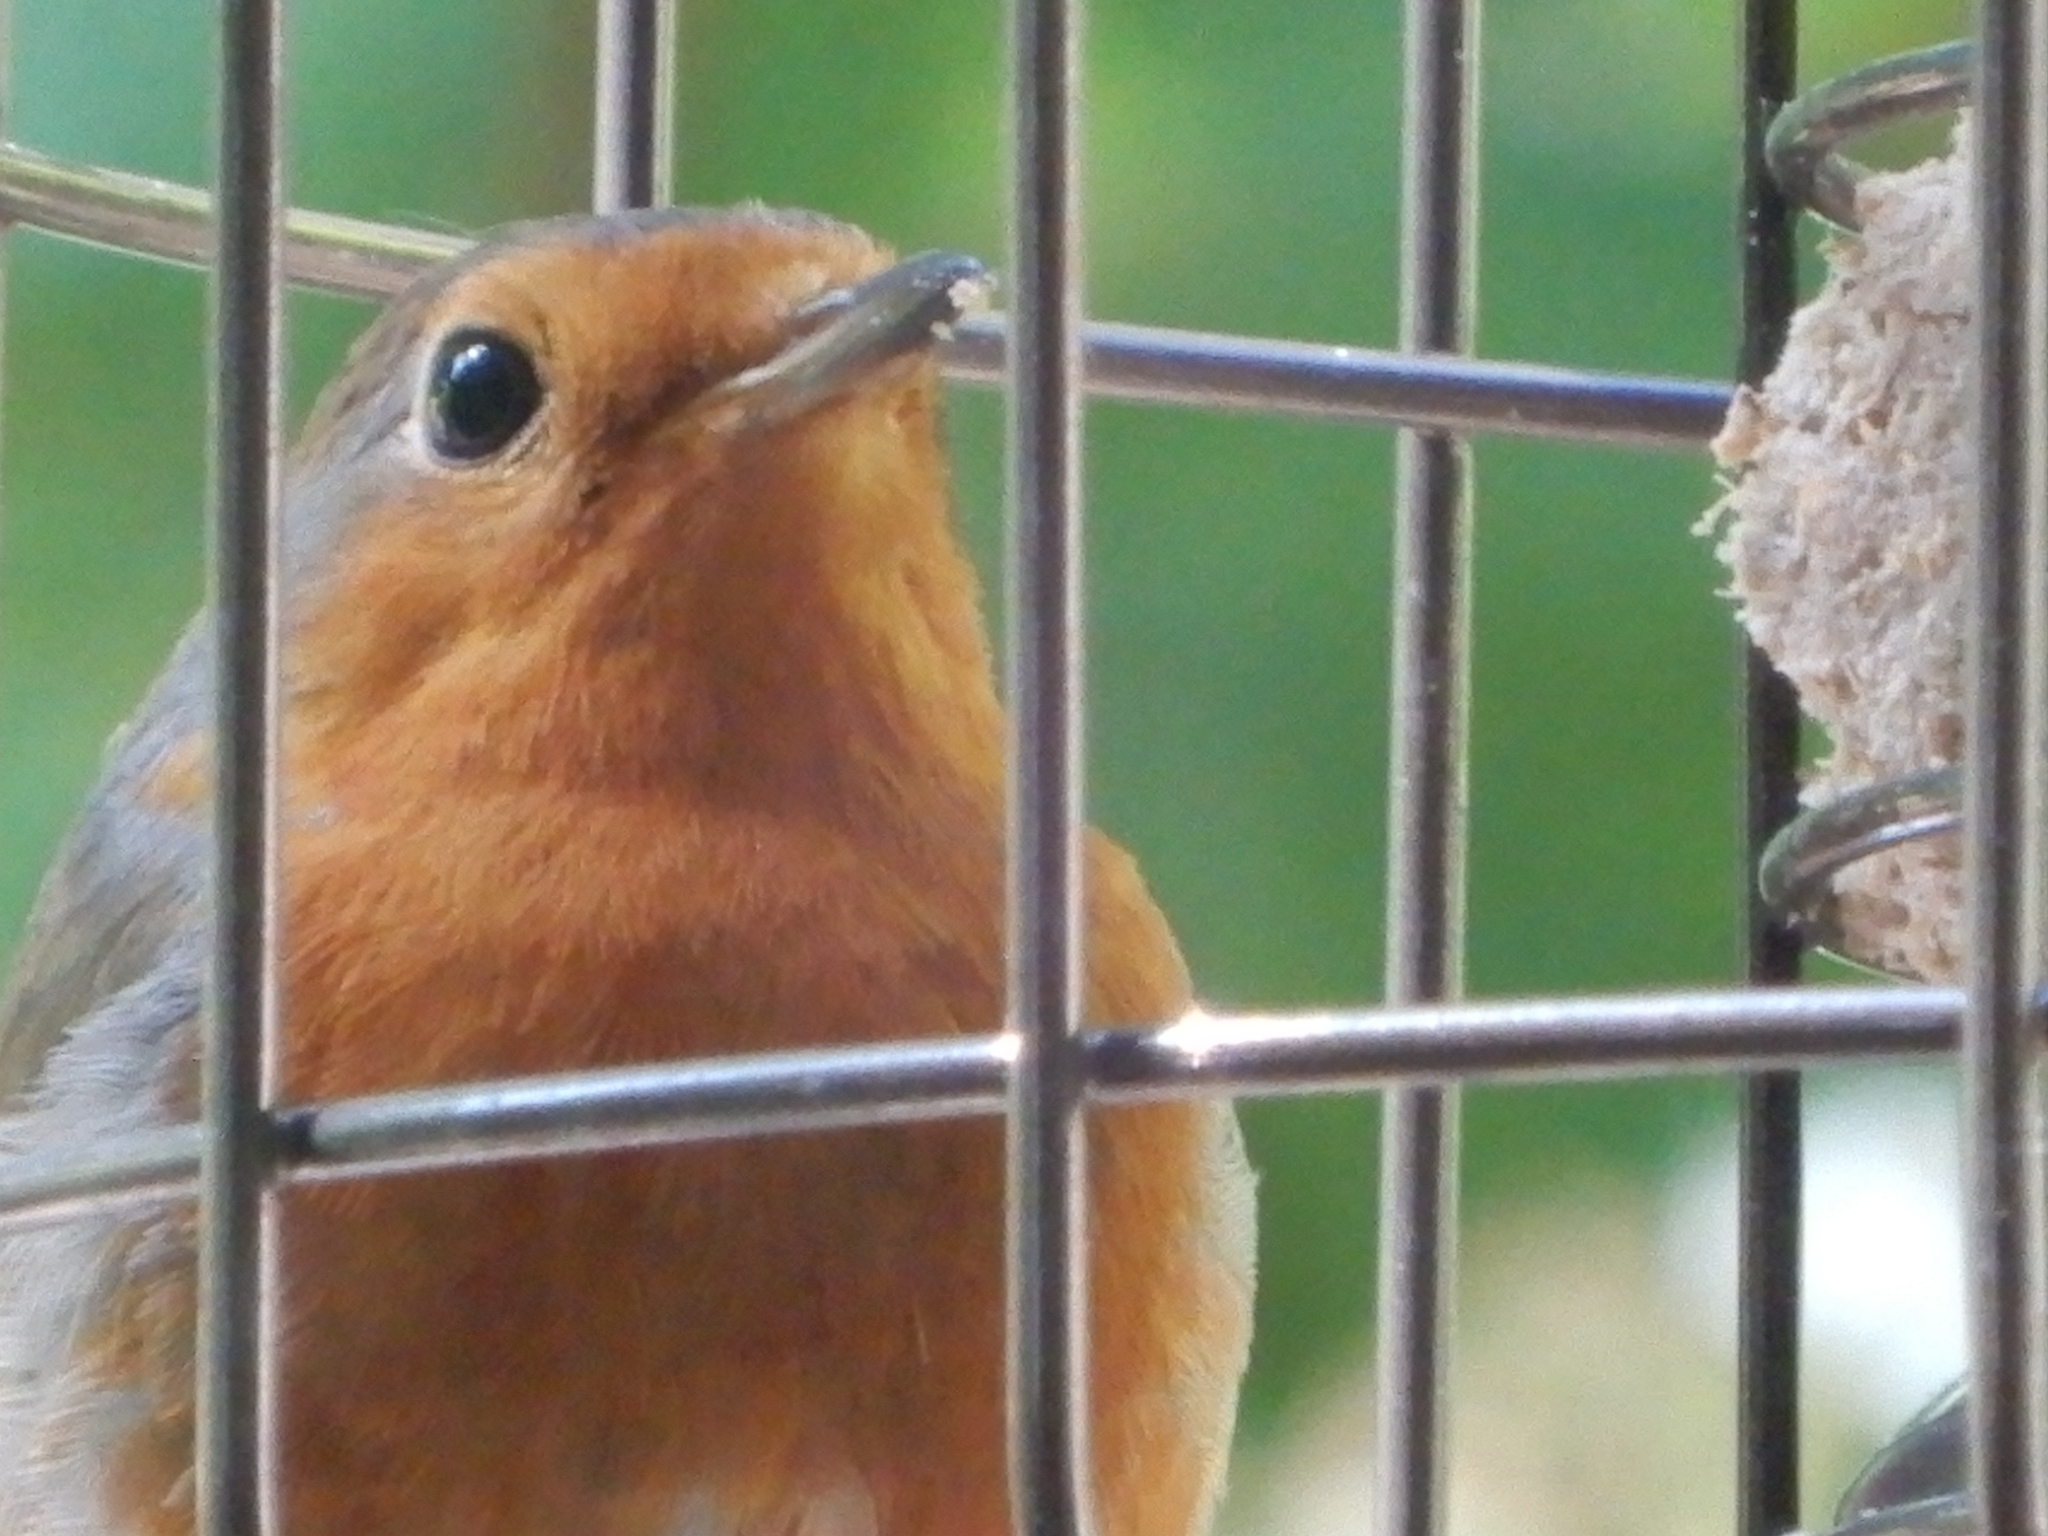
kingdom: Animalia
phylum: Chordata
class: Aves
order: Passeriformes
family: Muscicapidae
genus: Erithacus
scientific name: Erithacus rubecula
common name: European robin
